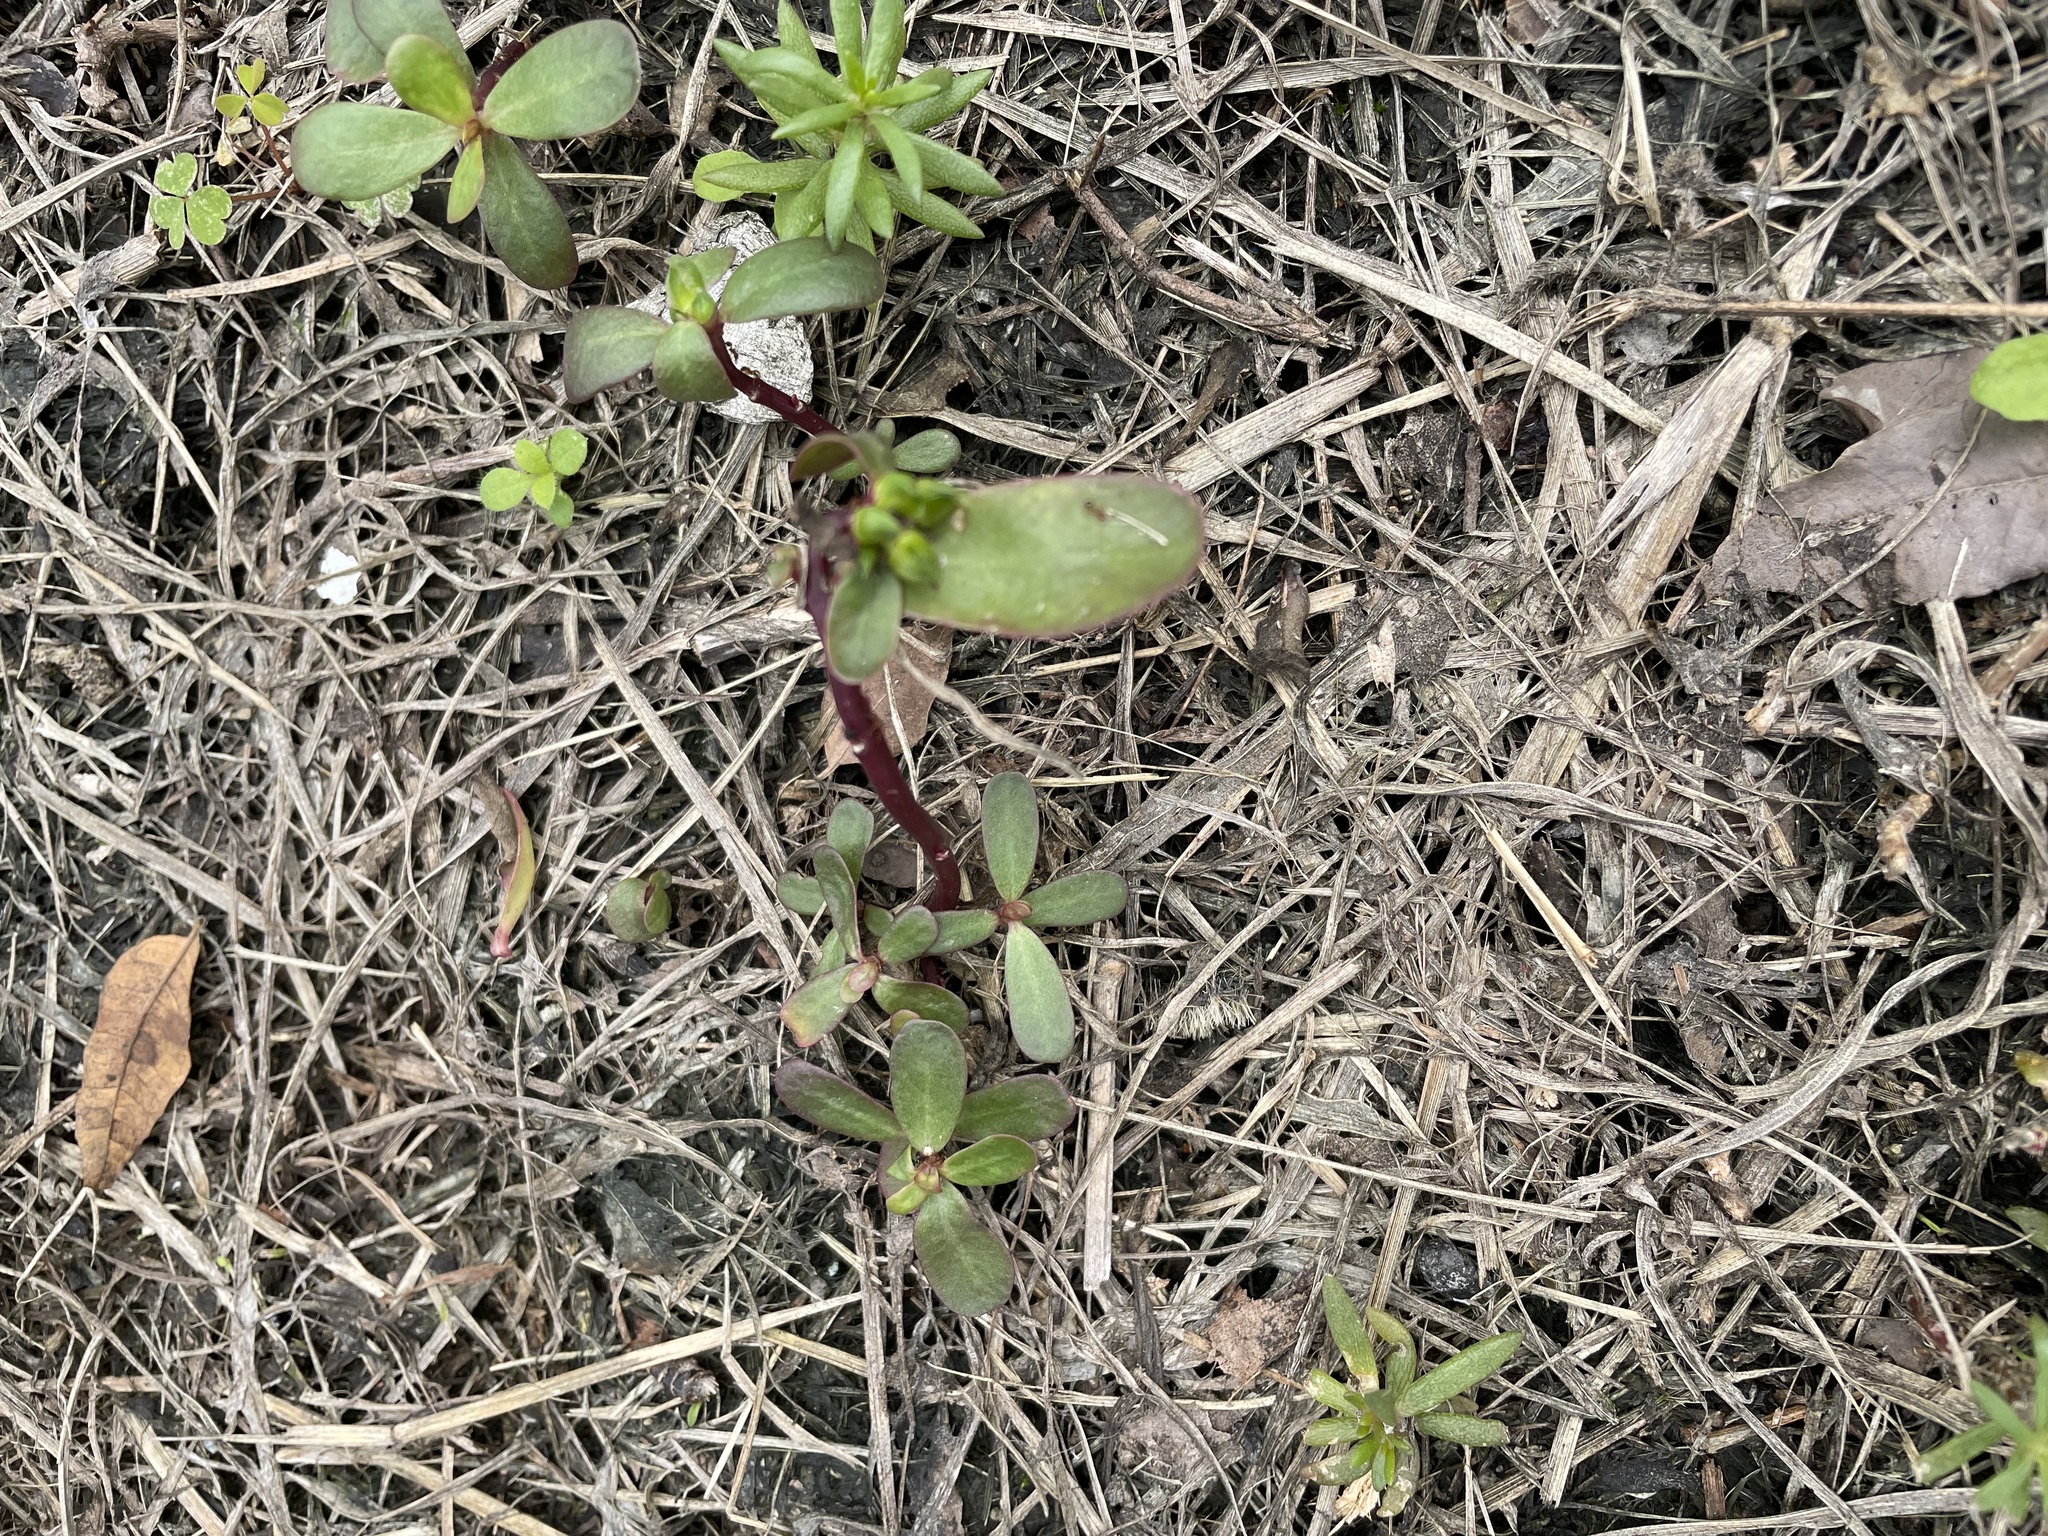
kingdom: Plantae
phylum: Tracheophyta
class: Magnoliopsida
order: Caryophyllales
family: Portulacaceae
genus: Portulaca
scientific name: Portulaca oleracea
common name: Common purslane
